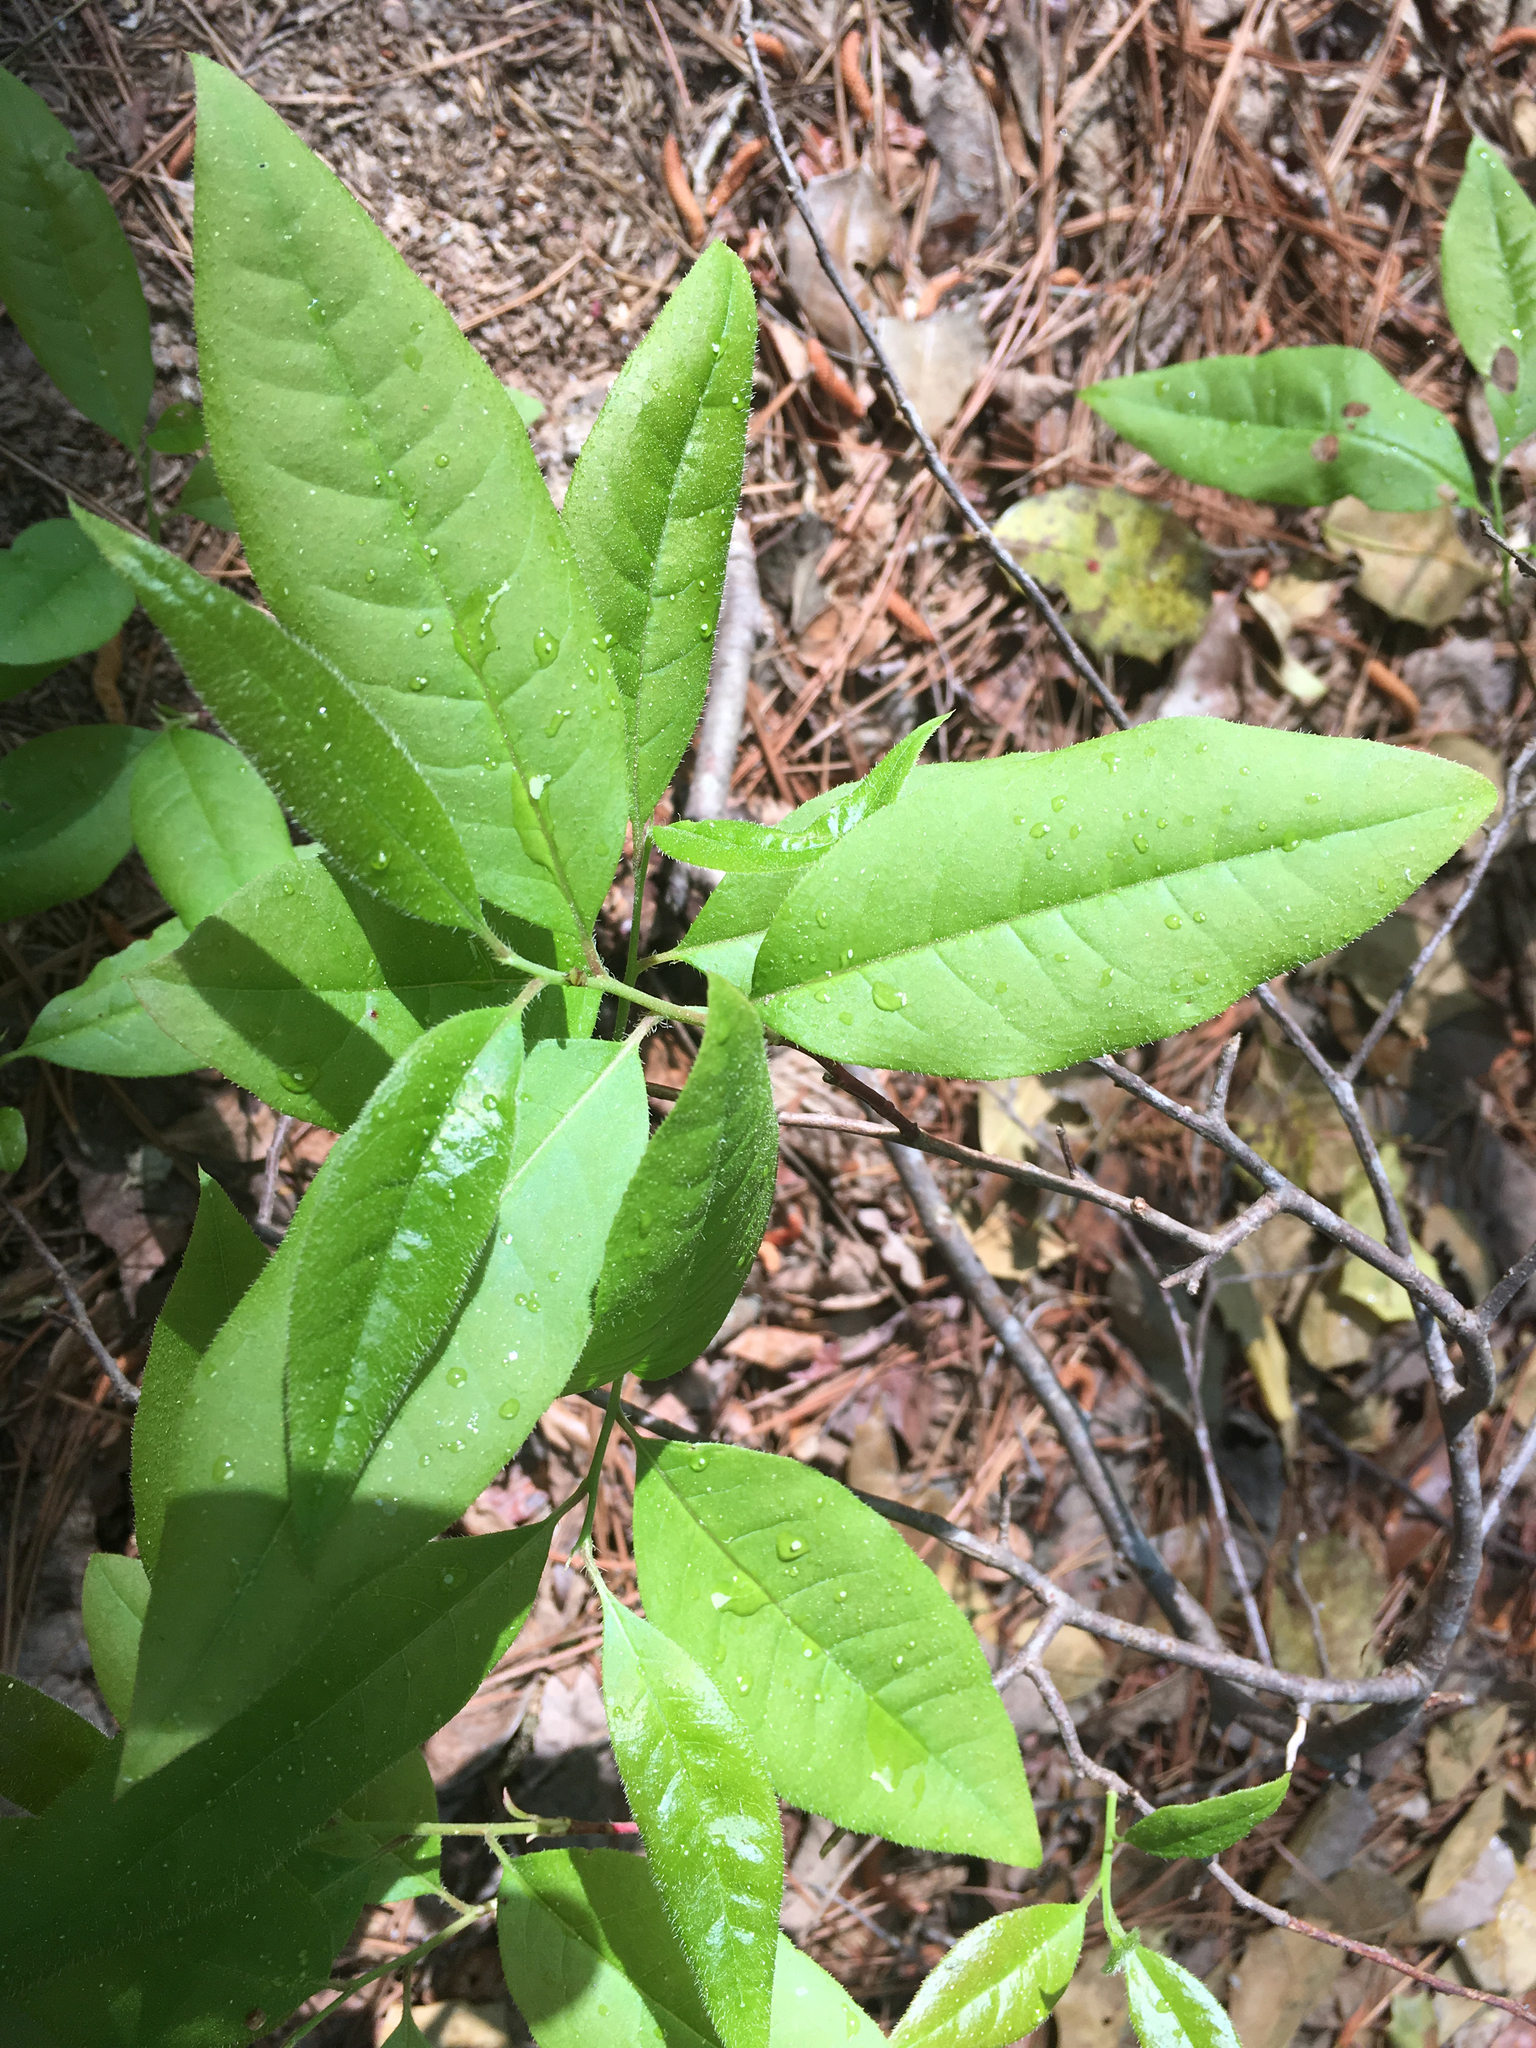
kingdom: Plantae
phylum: Tracheophyta
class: Magnoliopsida
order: Ericales
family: Ericaceae
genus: Oxydendrum
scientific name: Oxydendrum arboreum
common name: Sourwood
